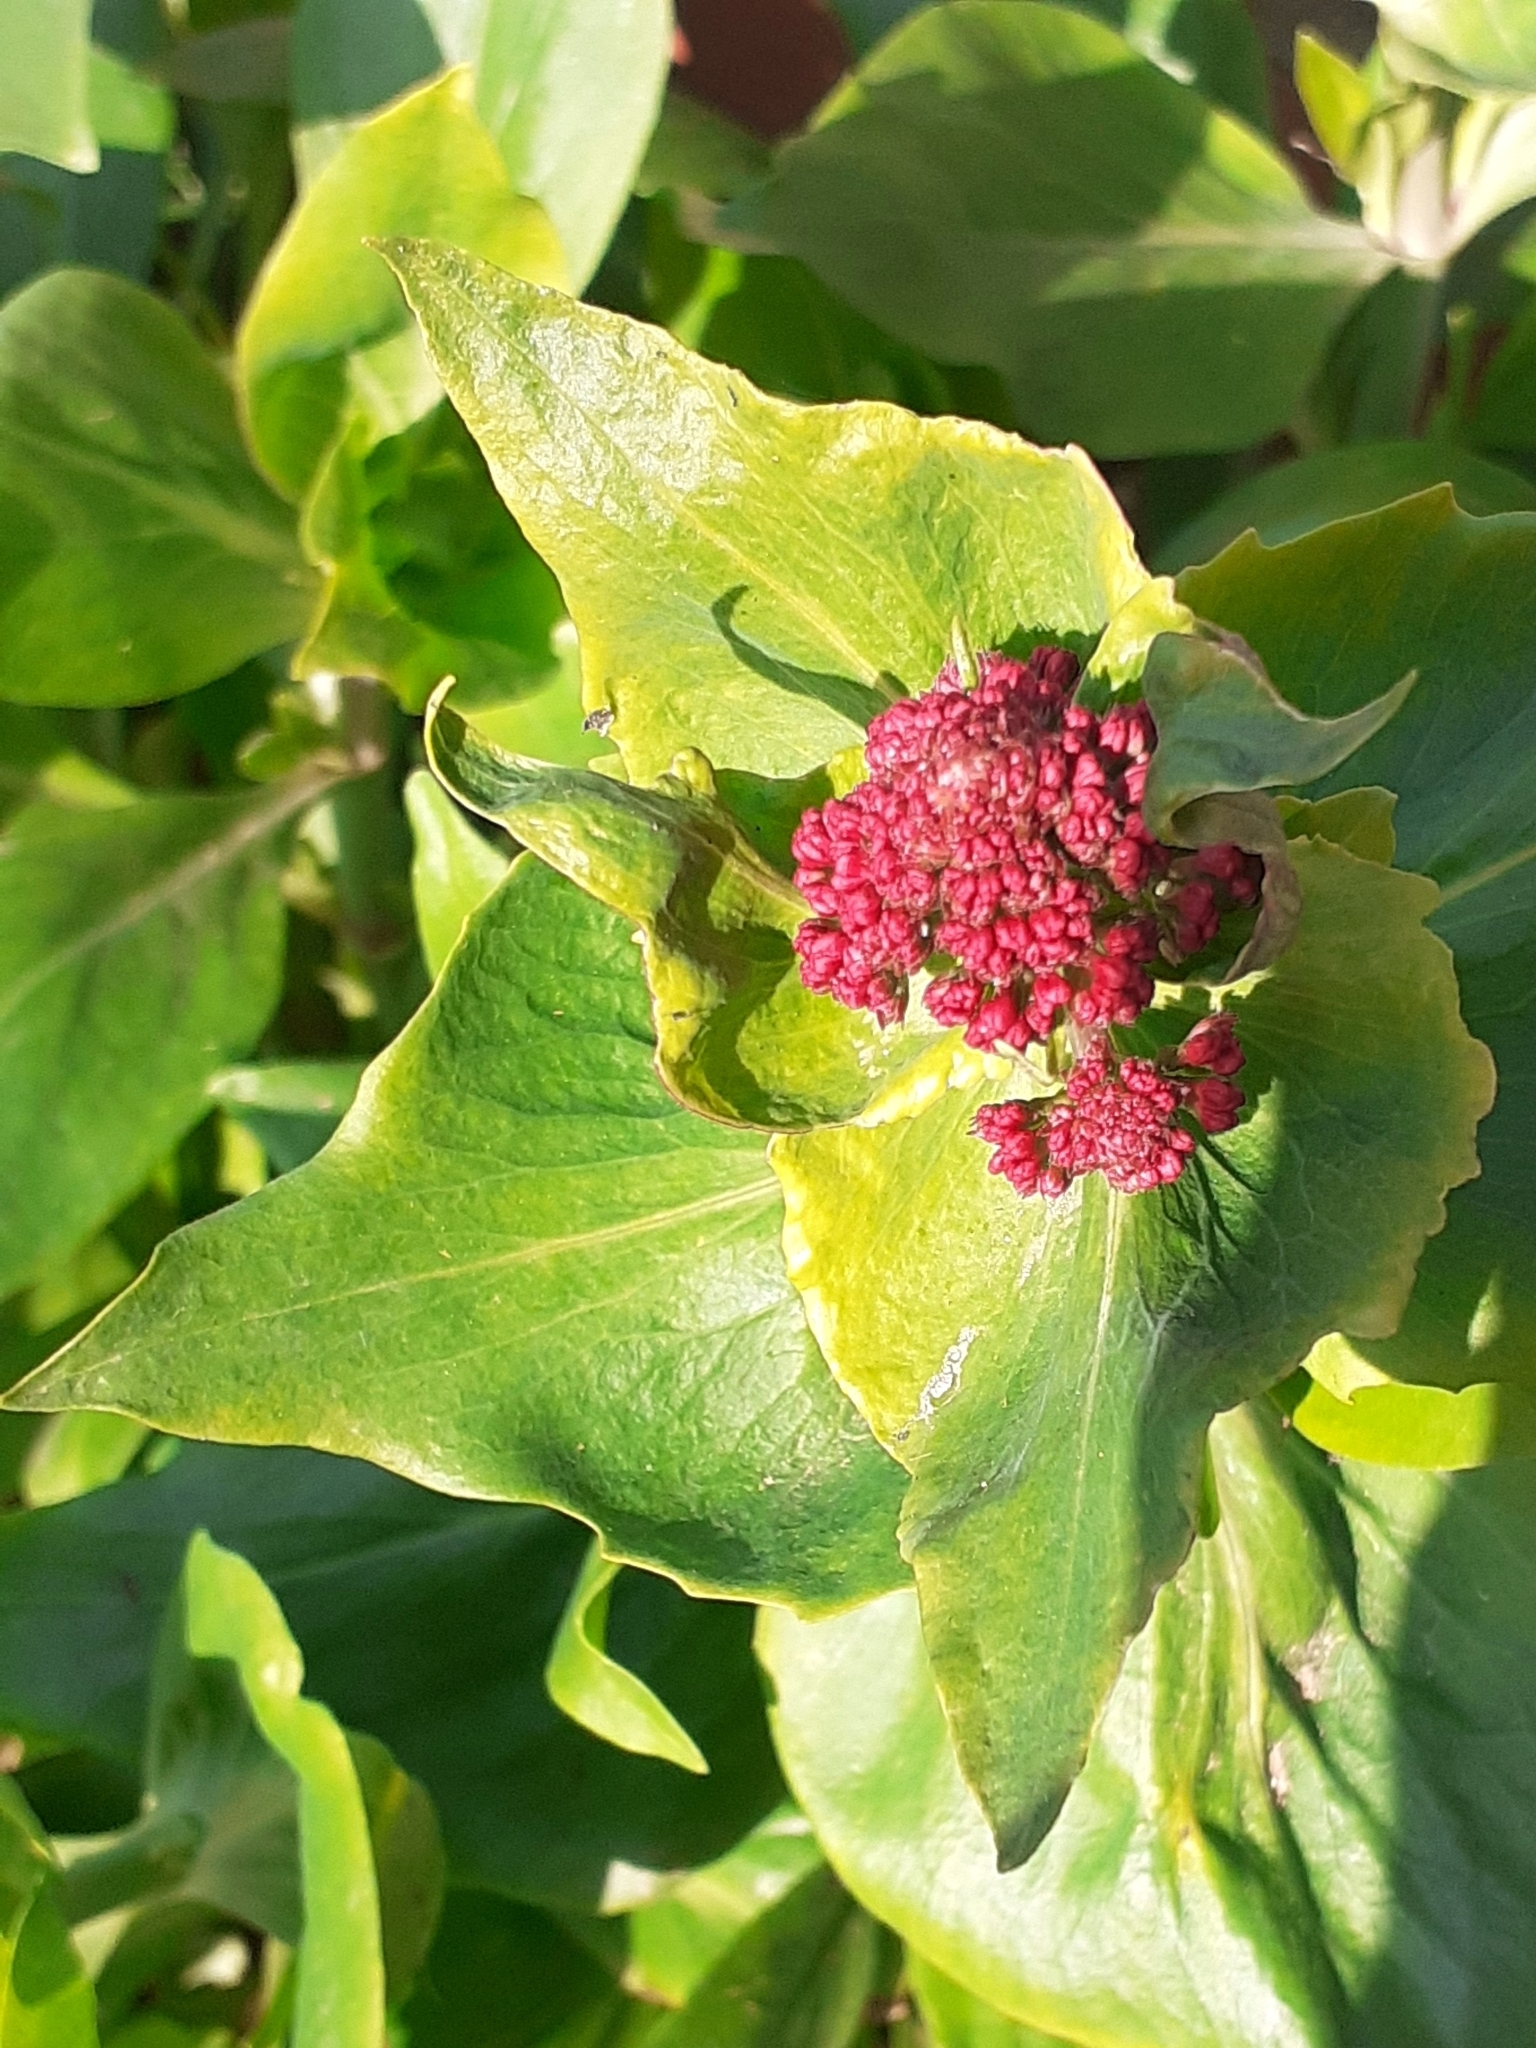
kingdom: Plantae
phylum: Tracheophyta
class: Magnoliopsida
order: Dipsacales
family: Caprifoliaceae
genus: Centranthus
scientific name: Centranthus ruber
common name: Red valerian
